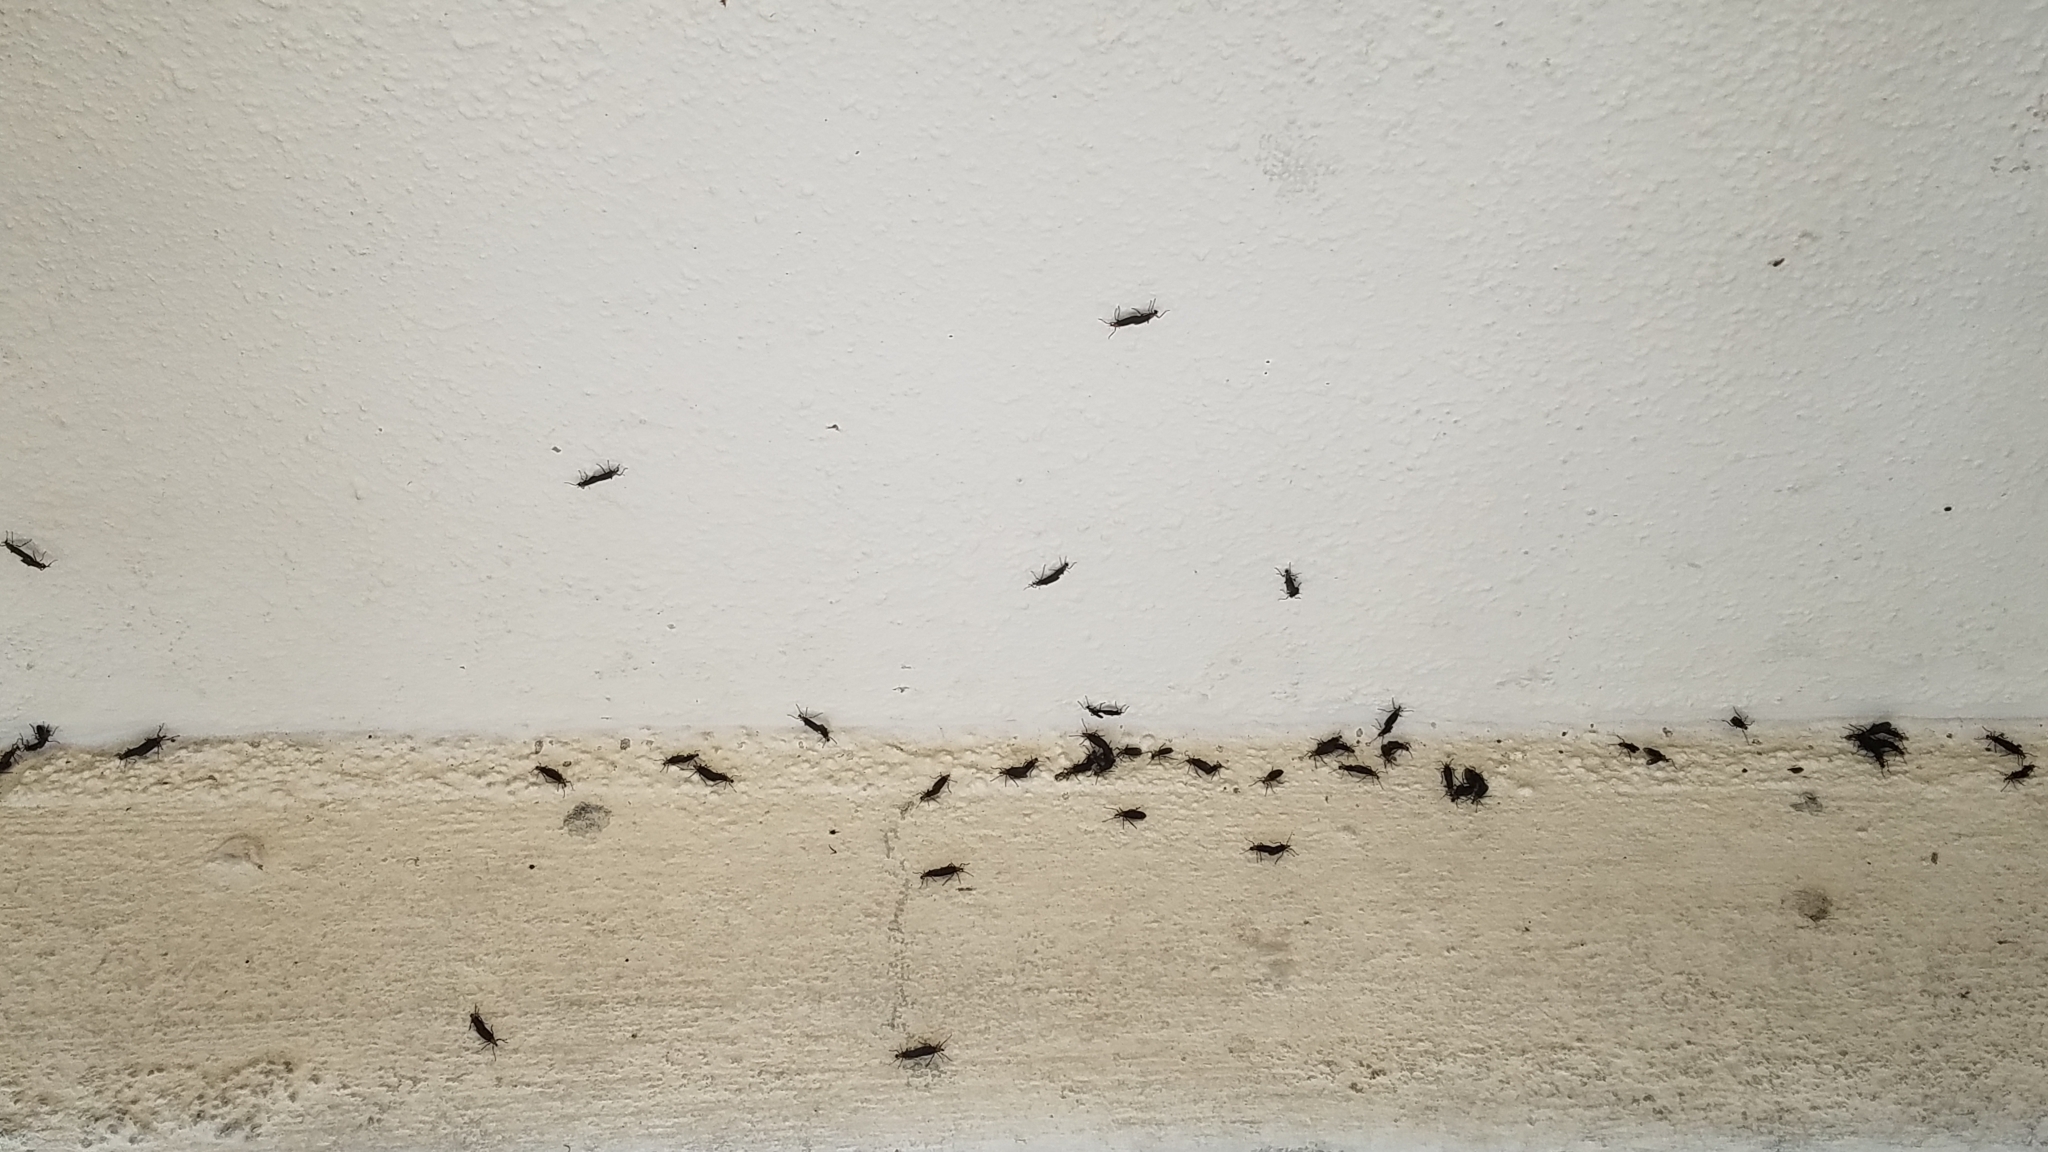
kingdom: Animalia
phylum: Arthropoda
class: Insecta
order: Diptera
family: Bibionidae
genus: Plecia
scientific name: Plecia nearctica
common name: March fly
